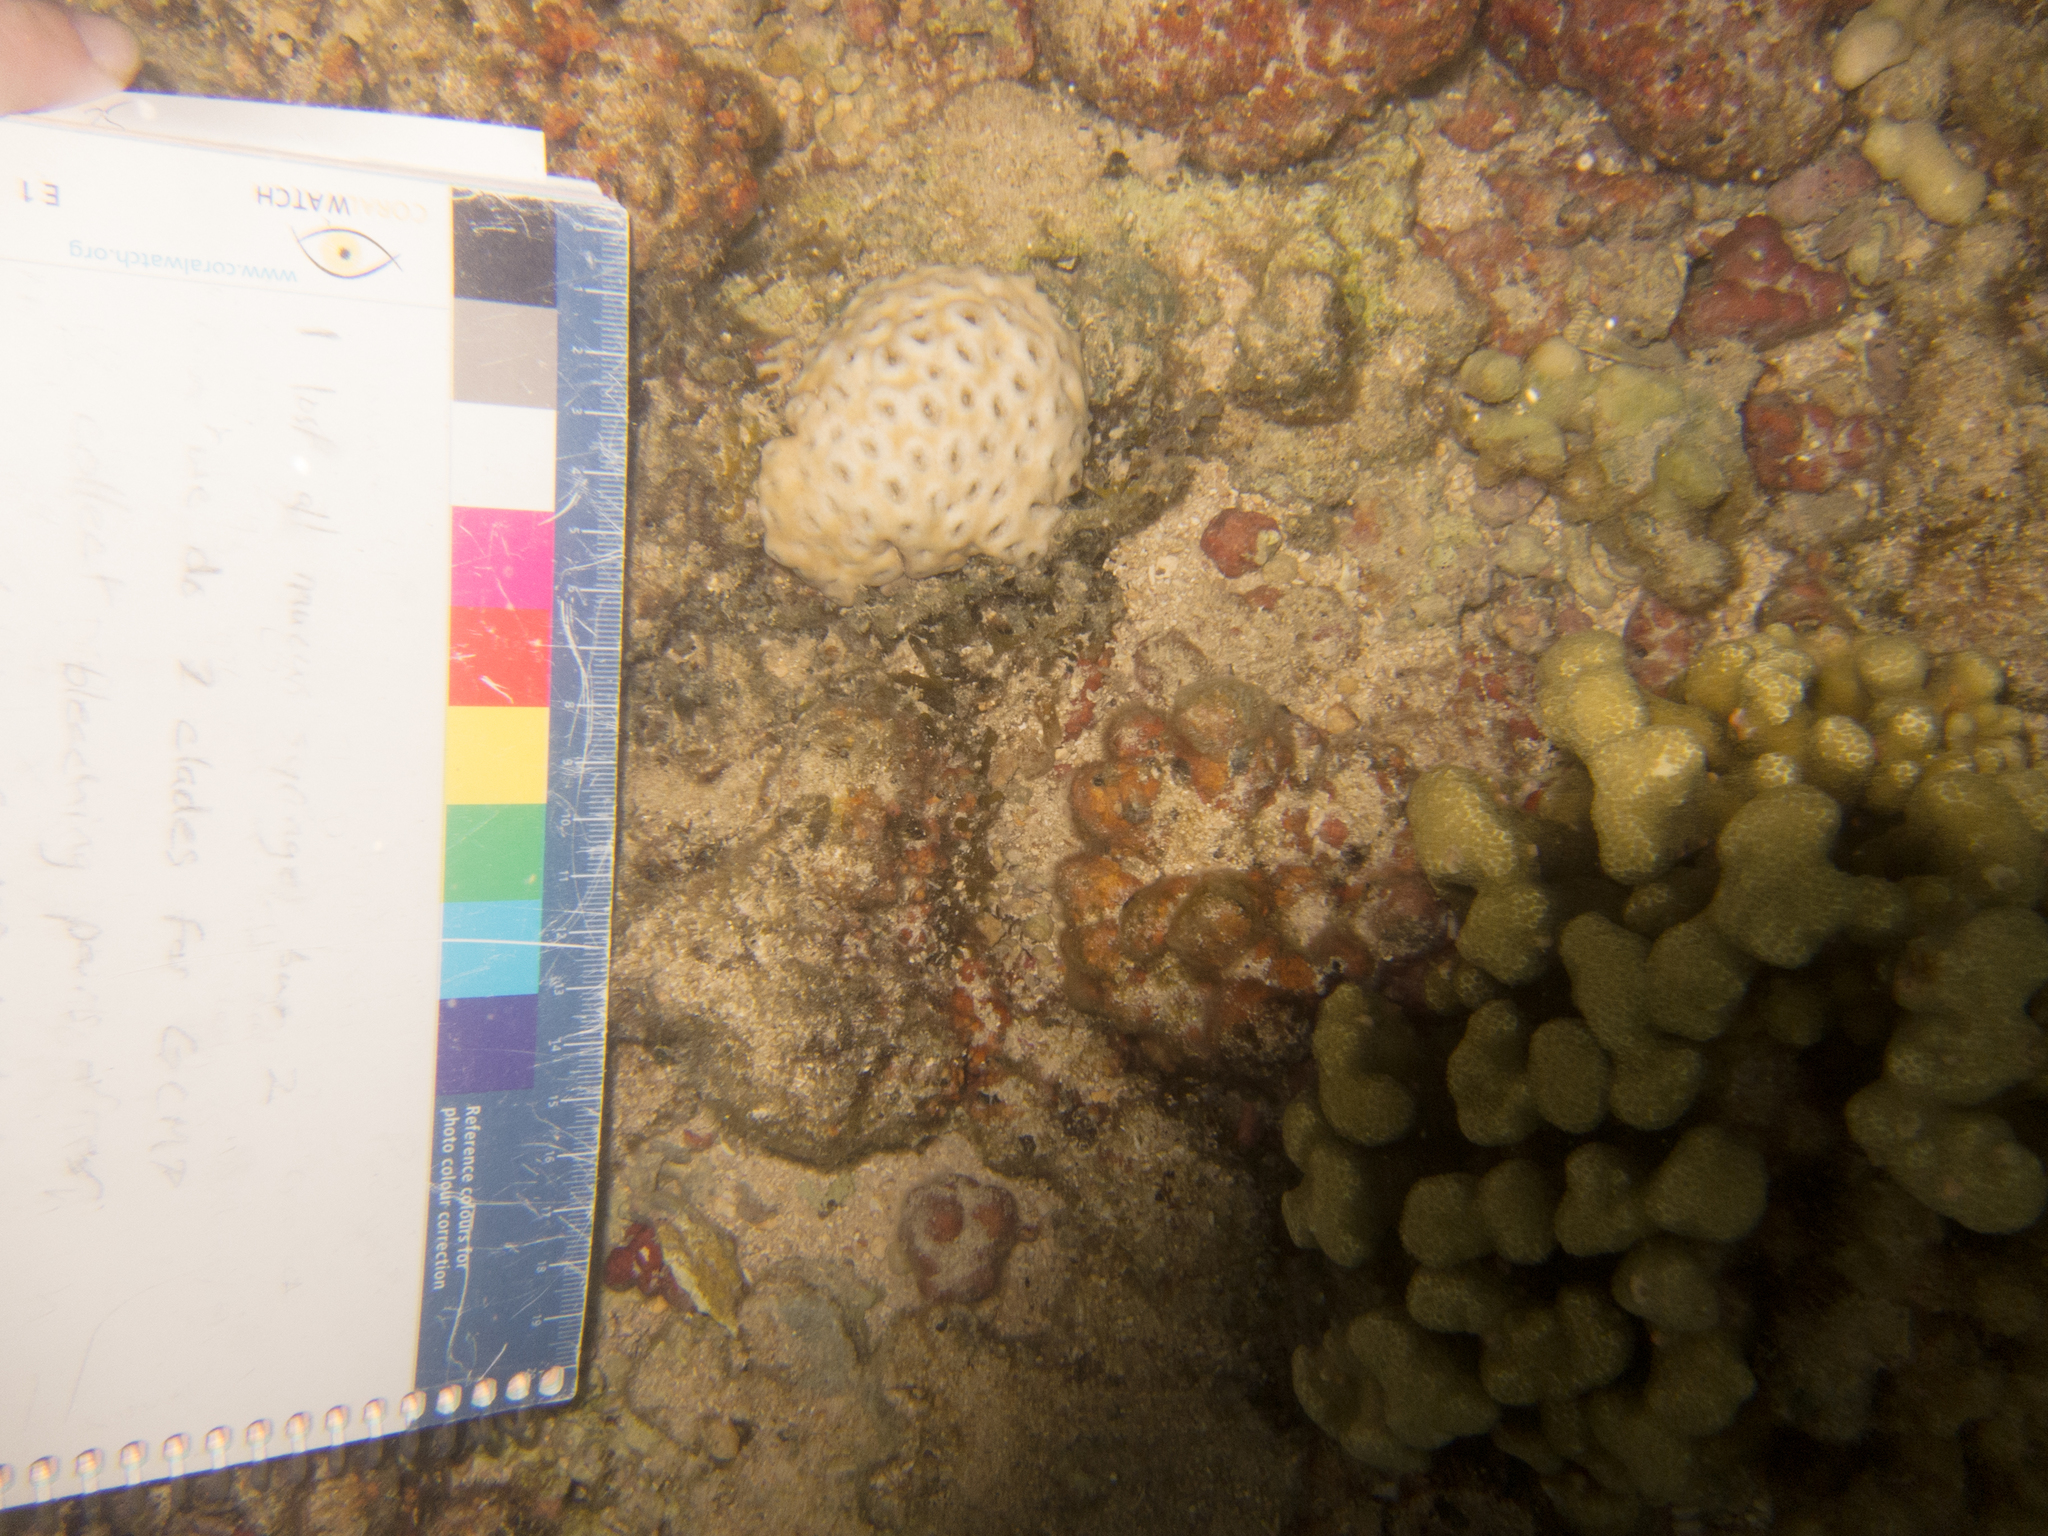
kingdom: Animalia
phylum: Cnidaria
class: Anthozoa
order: Zoantharia
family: Sphenopidae
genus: Palythoa
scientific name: Palythoa tuberculosa
